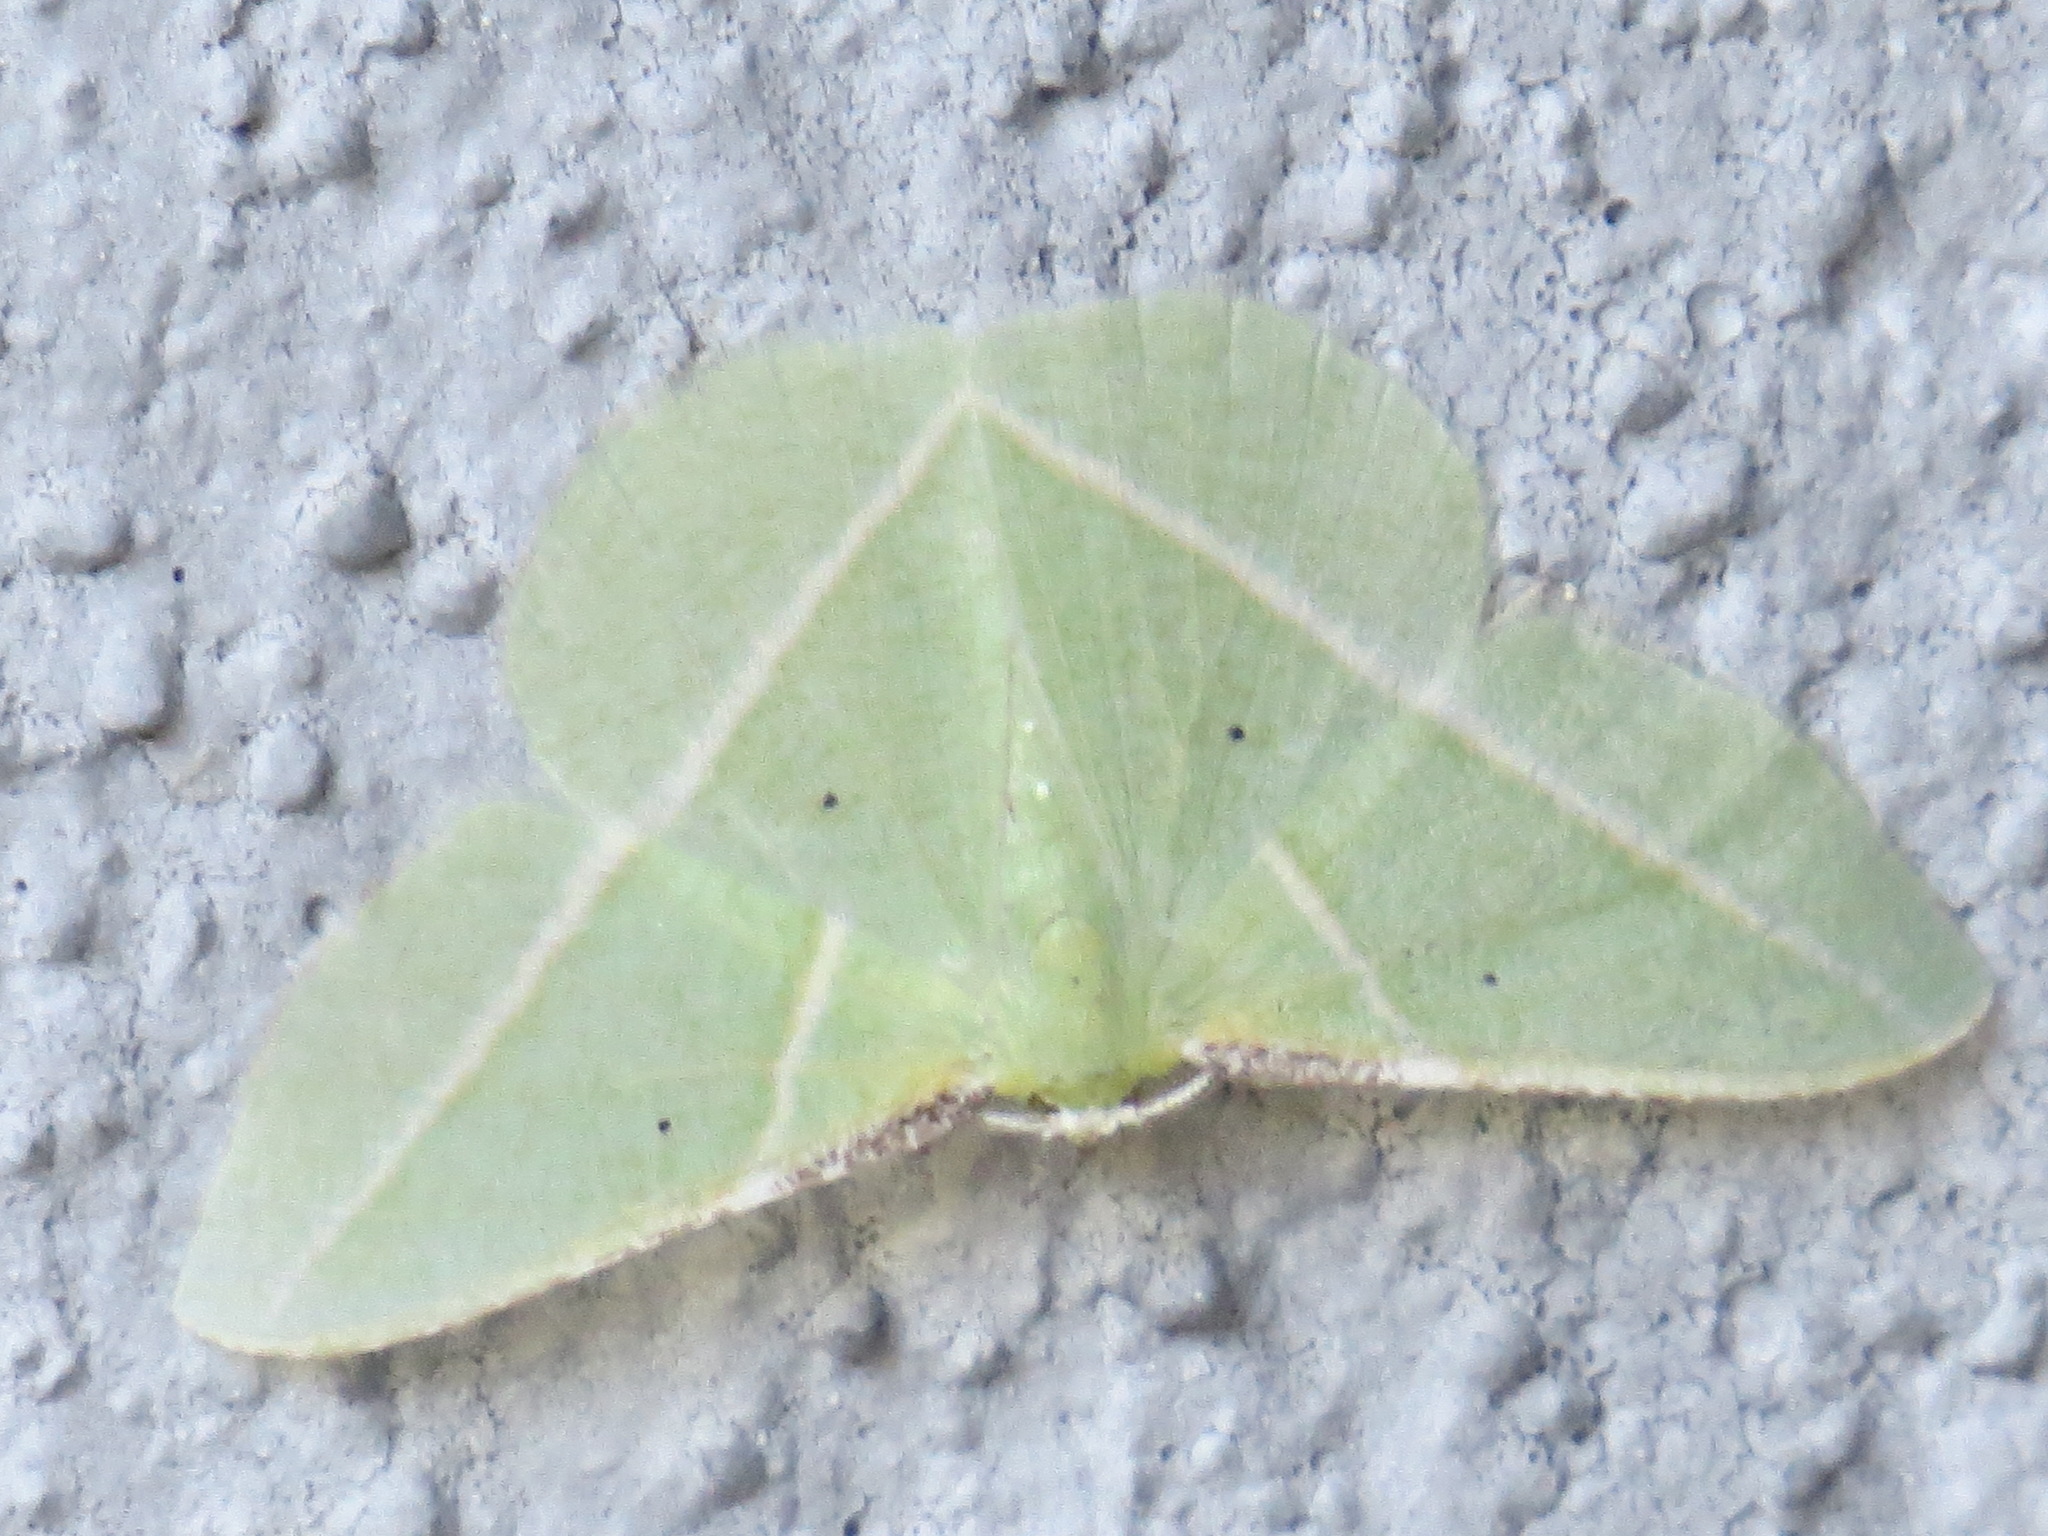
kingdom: Animalia
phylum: Arthropoda
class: Insecta
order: Lepidoptera
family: Geometridae
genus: Dichorda
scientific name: Dichorda illustraria
